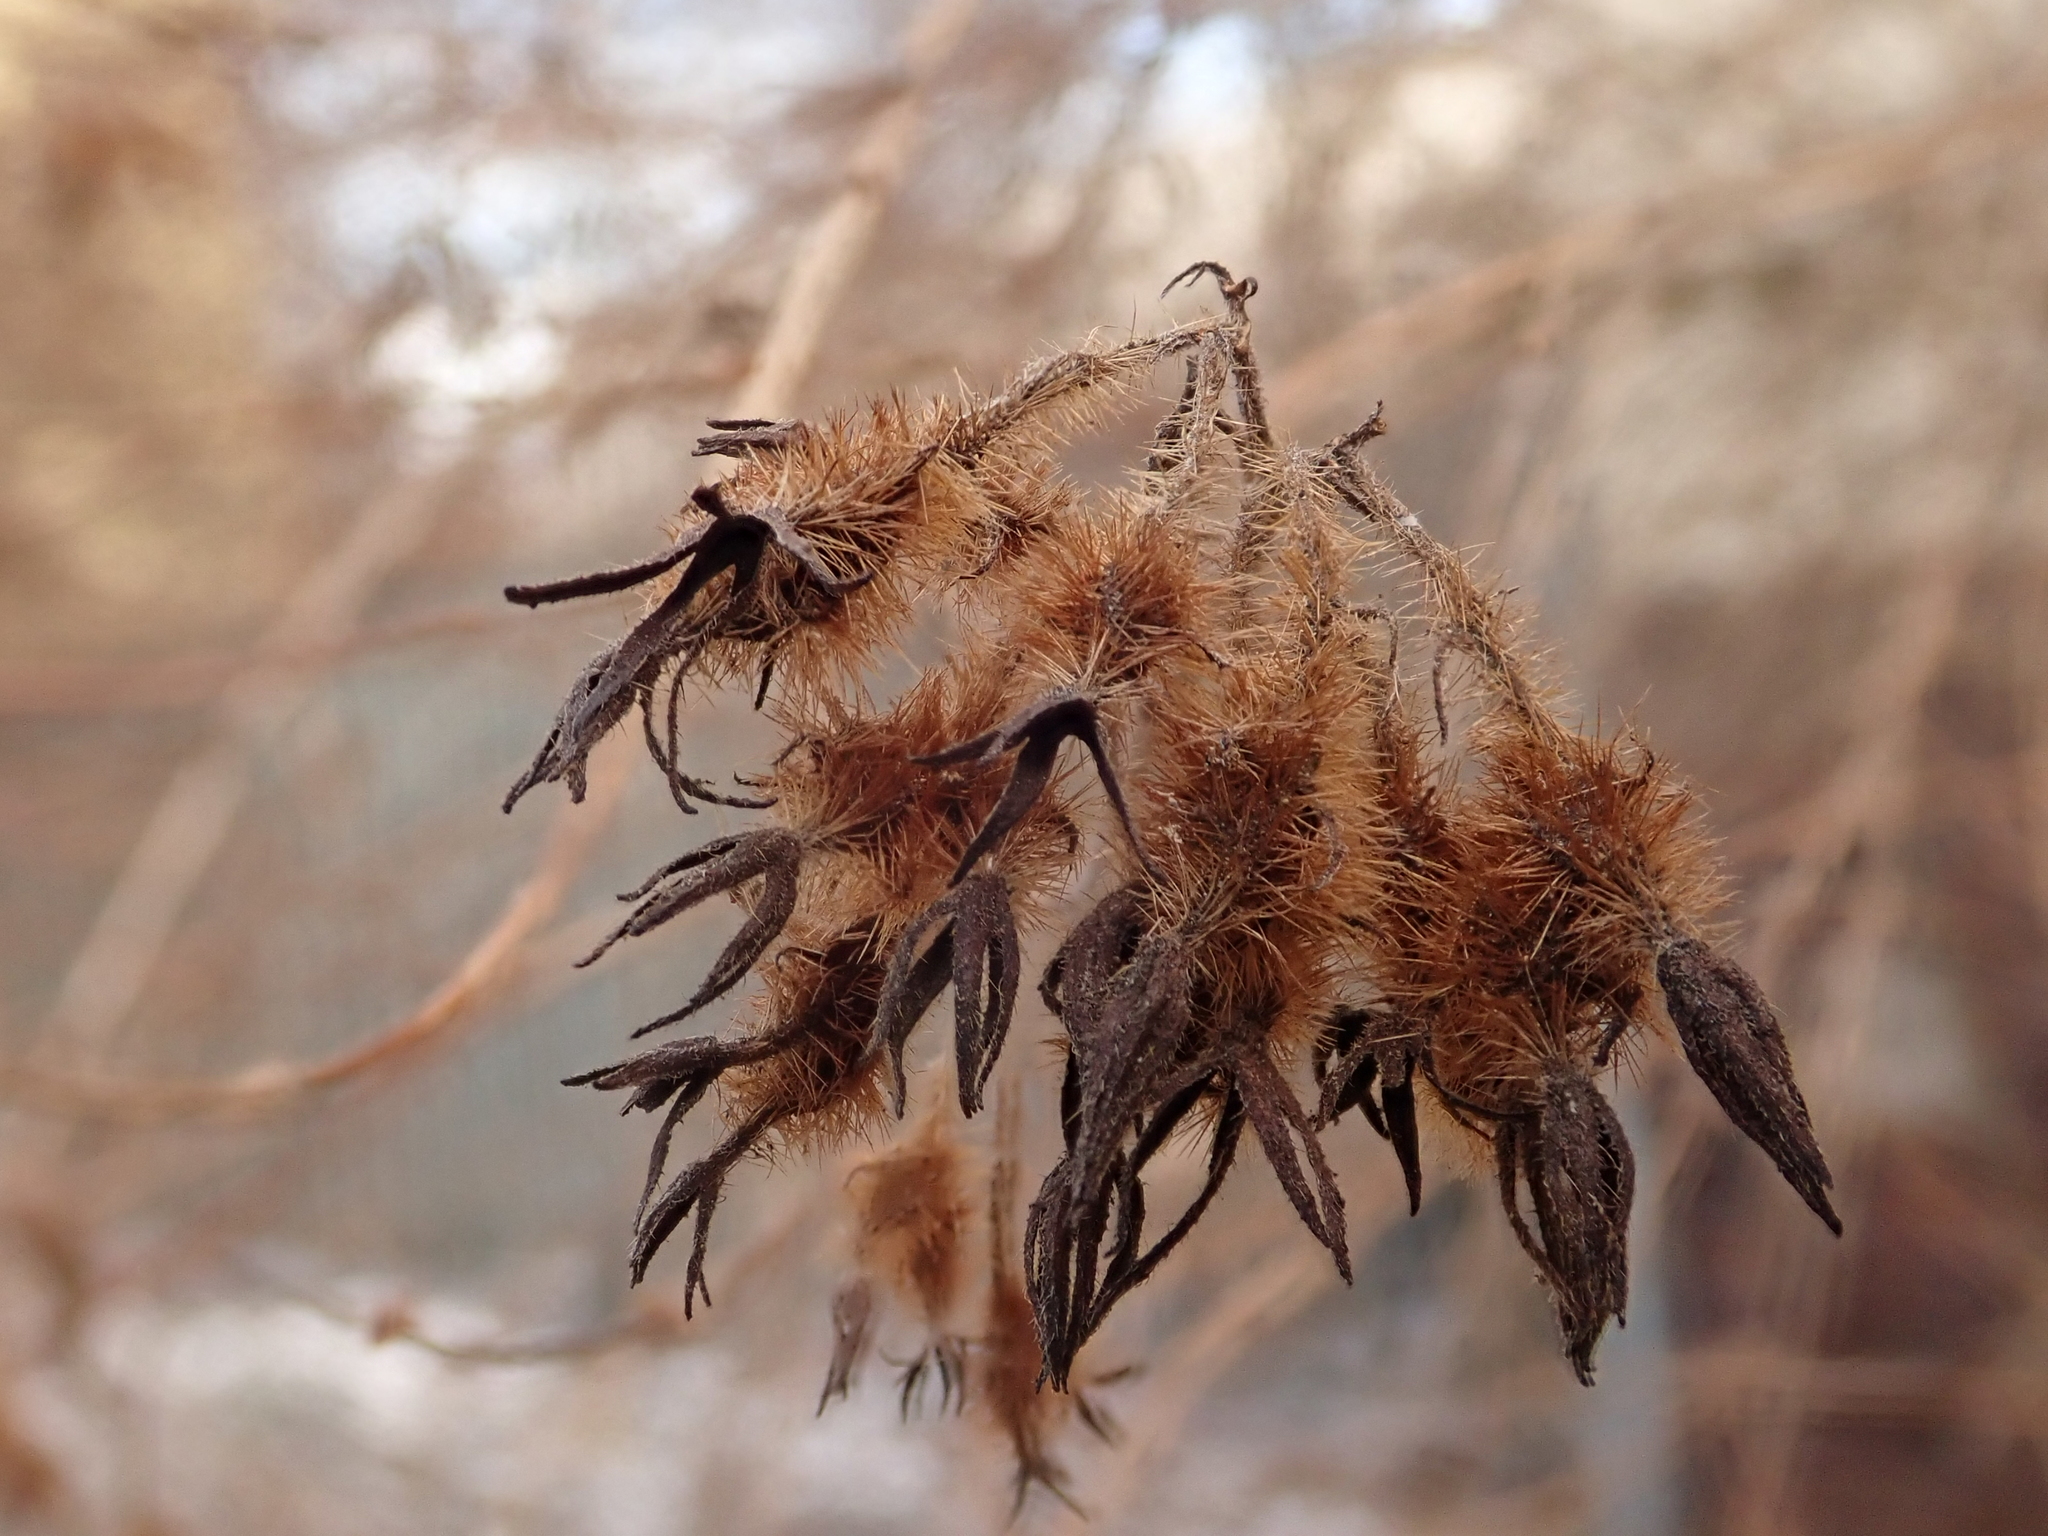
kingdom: Plantae
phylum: Tracheophyta
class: Magnoliopsida
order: Dipsacales
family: Caprifoliaceae
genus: Kolkwitzia
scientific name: Kolkwitzia amabilis
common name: Beautybush
